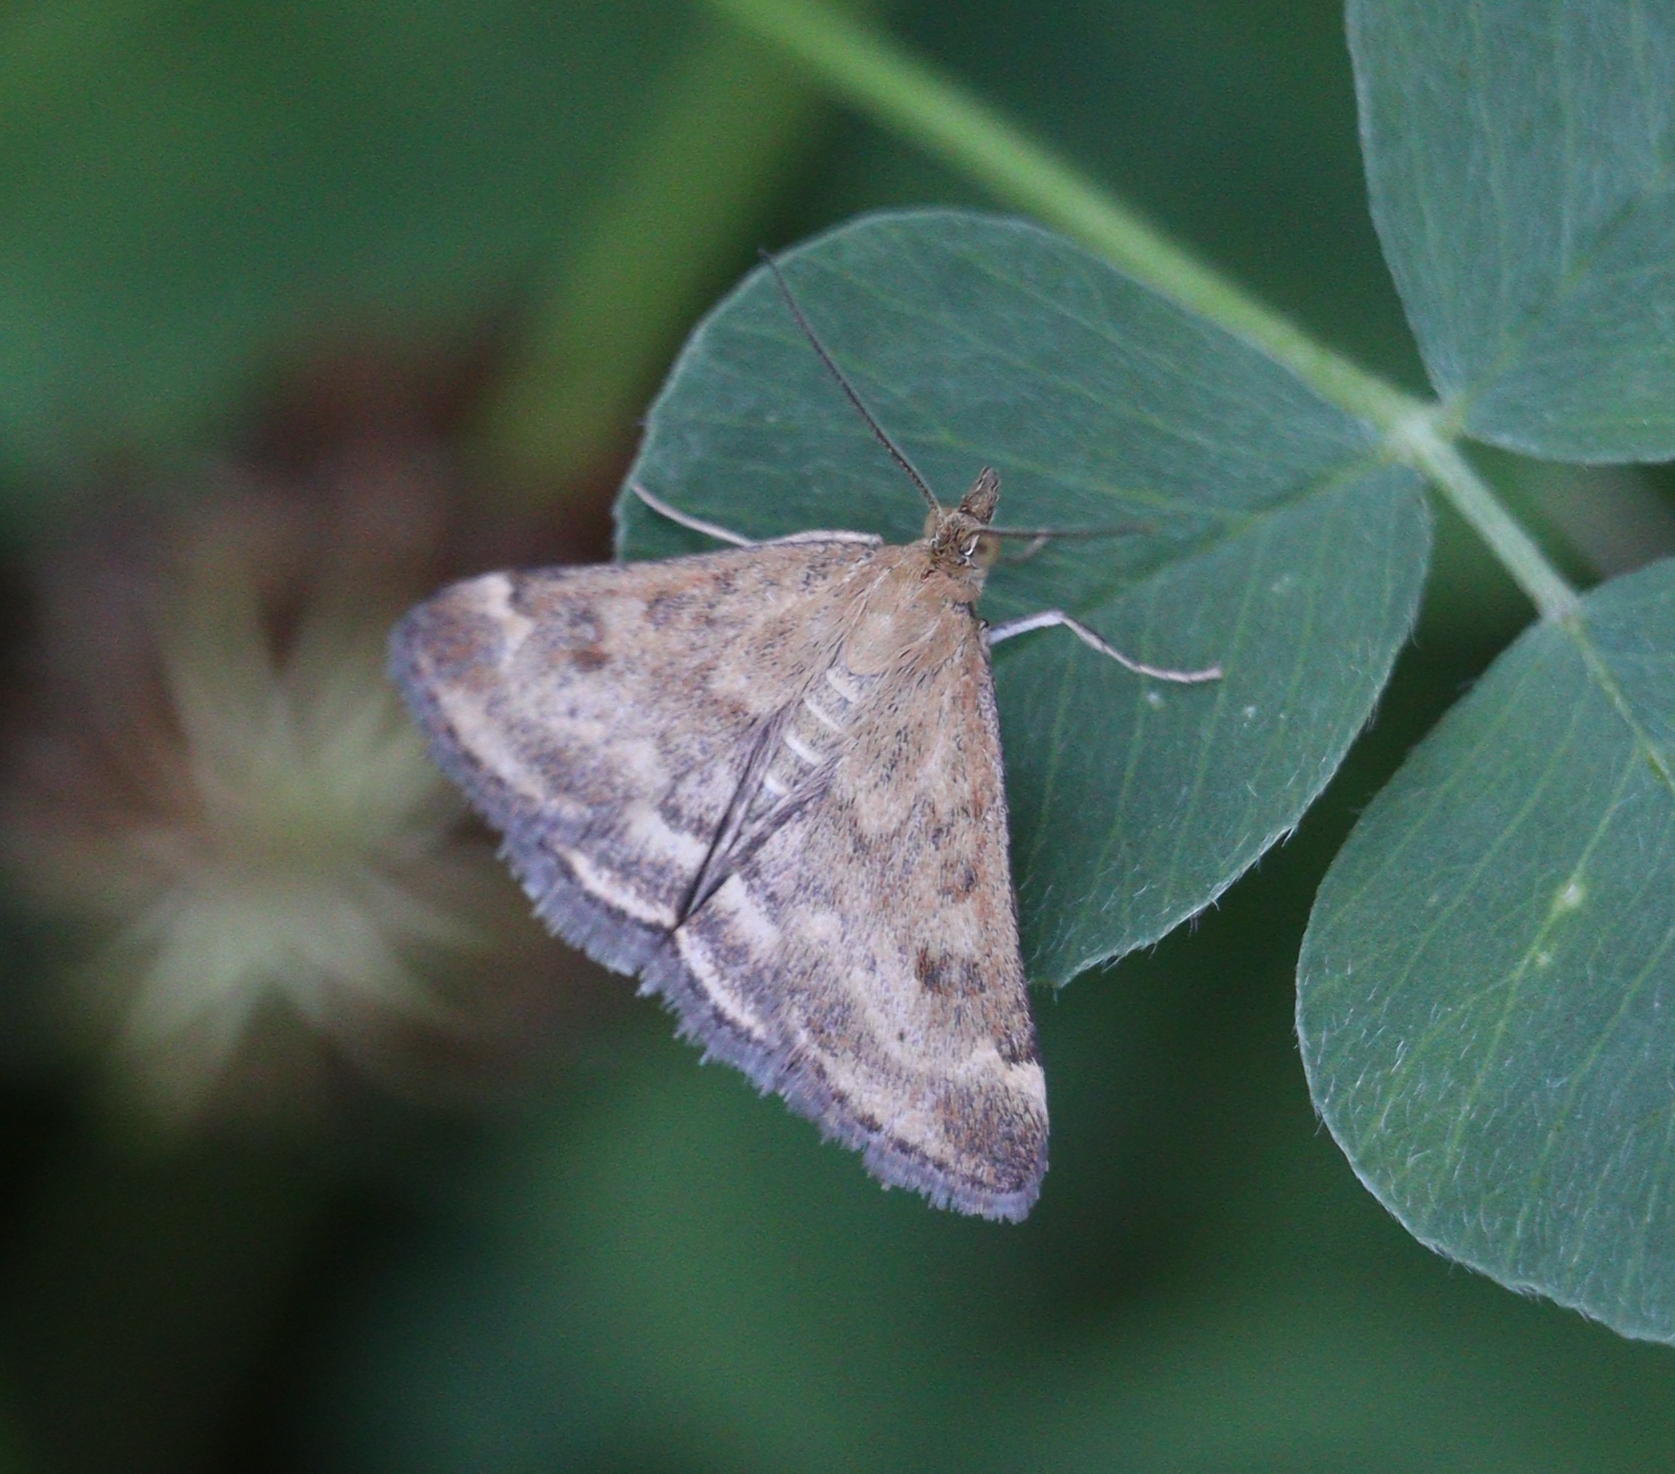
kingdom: Animalia
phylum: Arthropoda
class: Insecta
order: Lepidoptera
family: Crambidae
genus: Pyrausta
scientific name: Pyrausta despicata
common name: Straw-barred pearl
